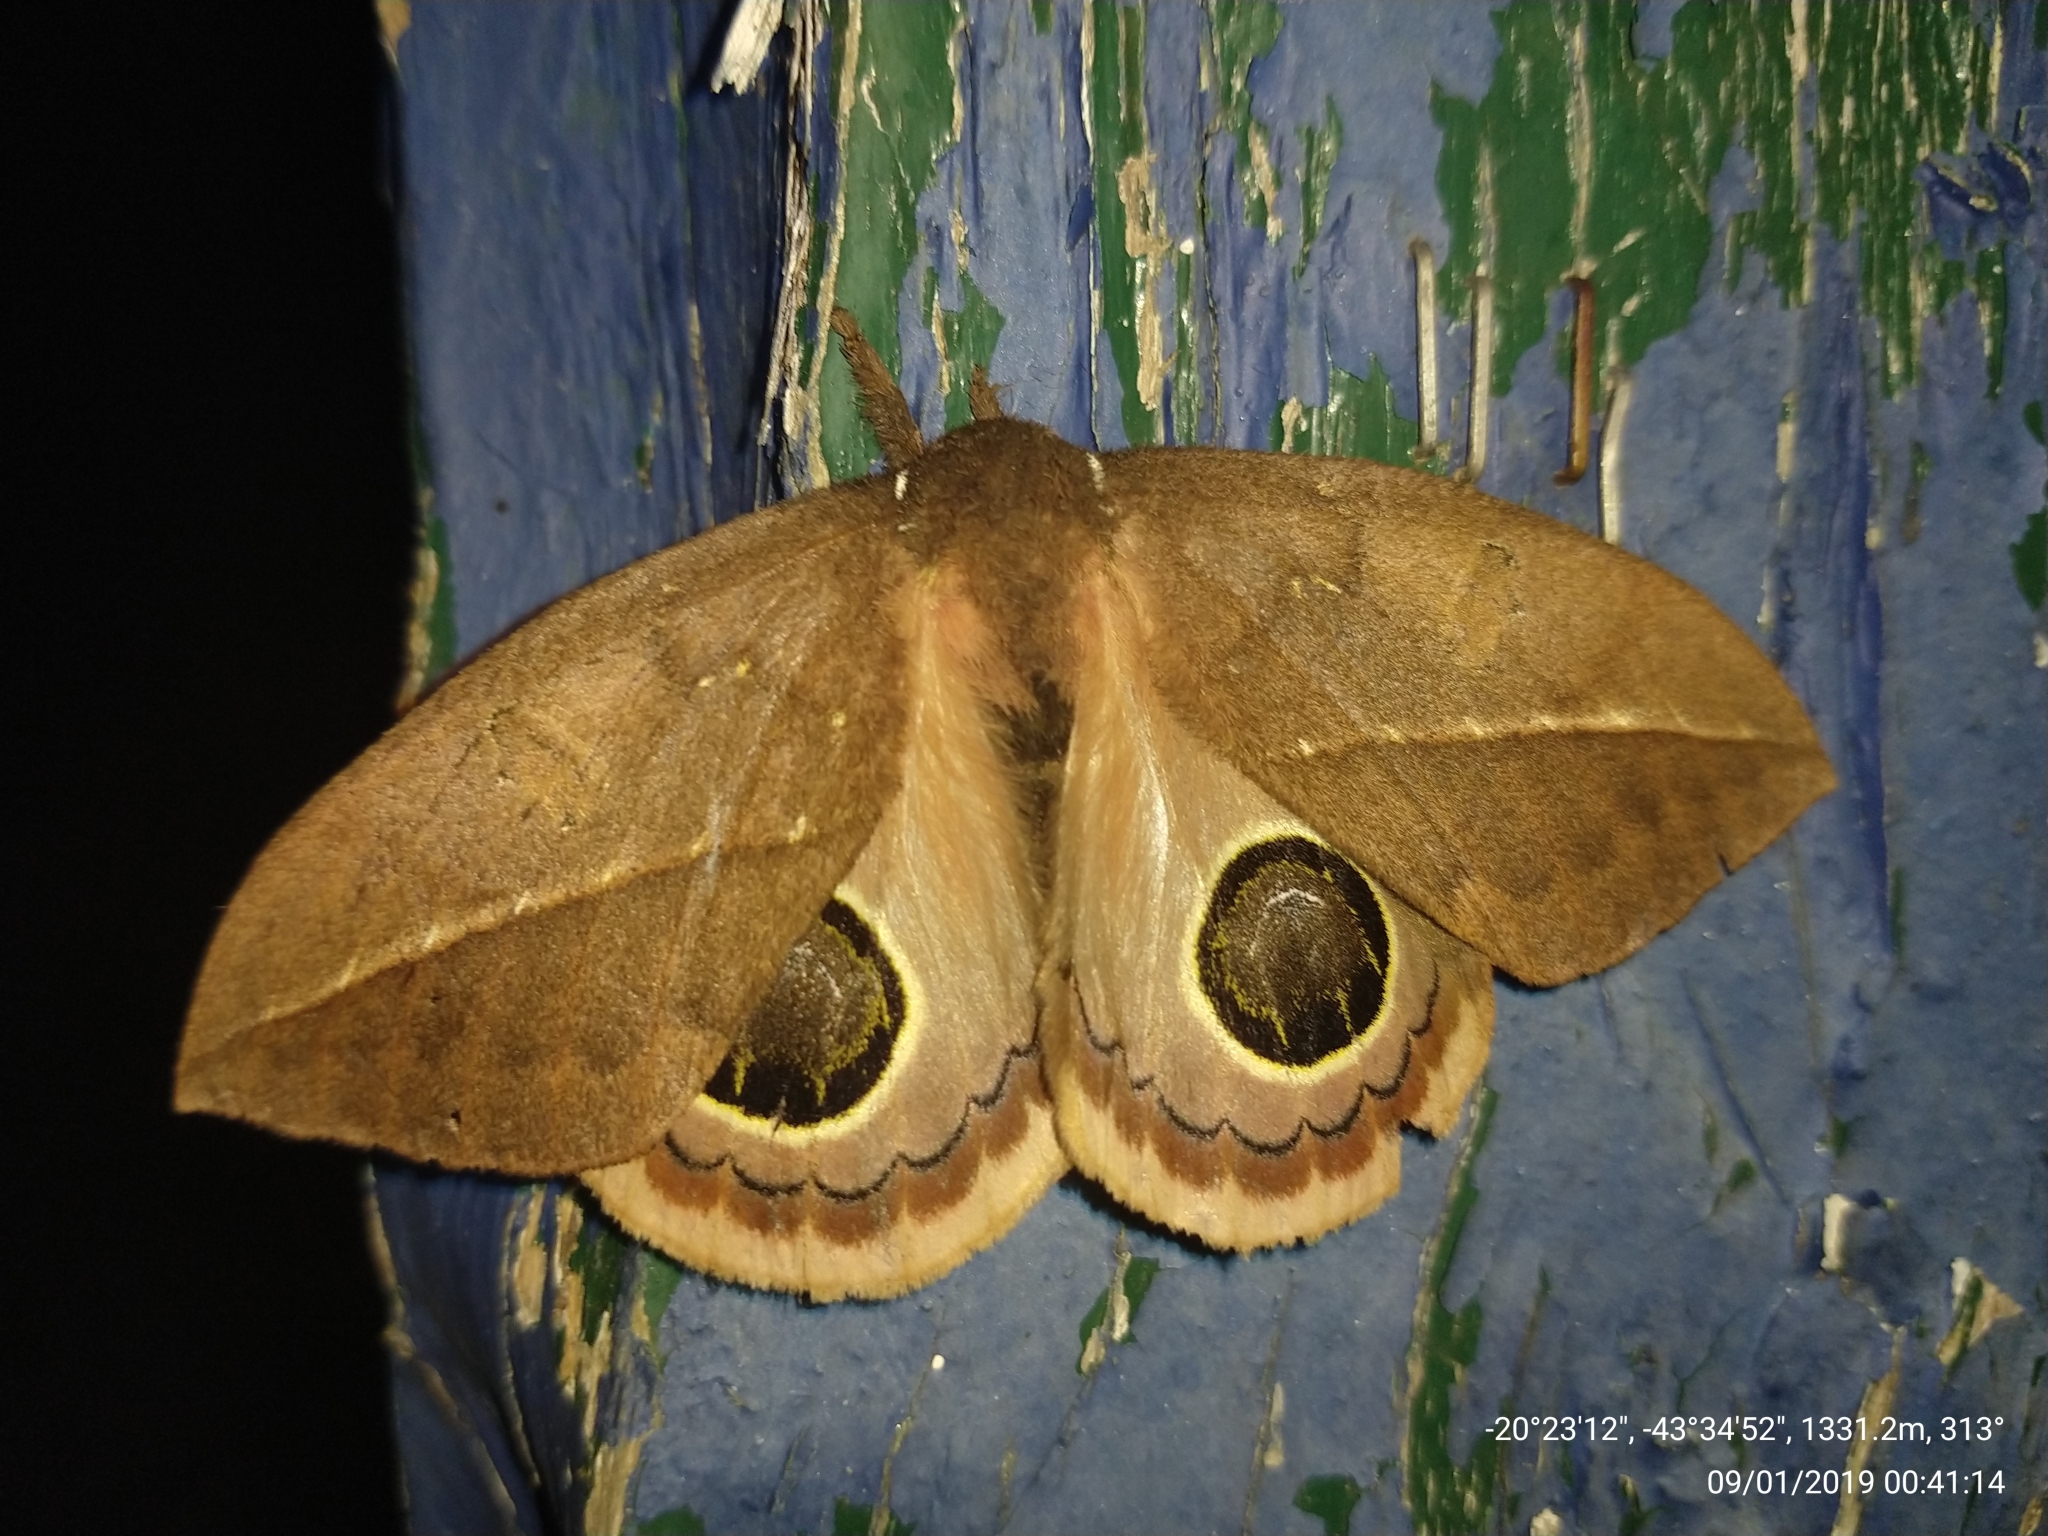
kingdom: Animalia
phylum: Arthropoda
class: Insecta
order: Lepidoptera
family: Saturniidae
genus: Pseudautomeris
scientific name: Pseudautomeris hubneri
